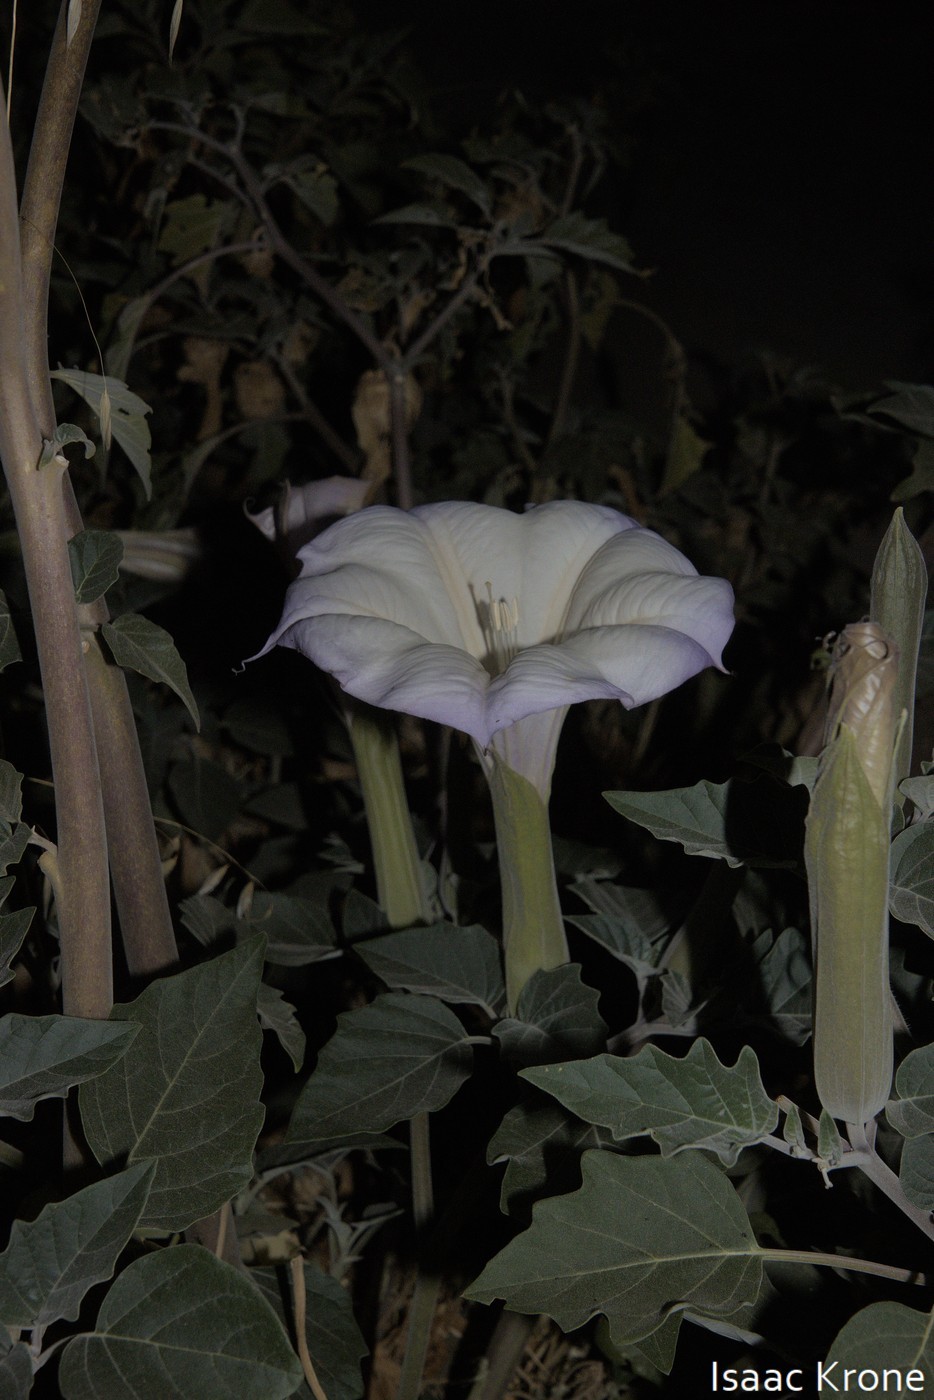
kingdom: Plantae
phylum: Tracheophyta
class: Magnoliopsida
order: Solanales
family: Solanaceae
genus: Datura
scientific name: Datura wrightii
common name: Sacred thorn-apple
